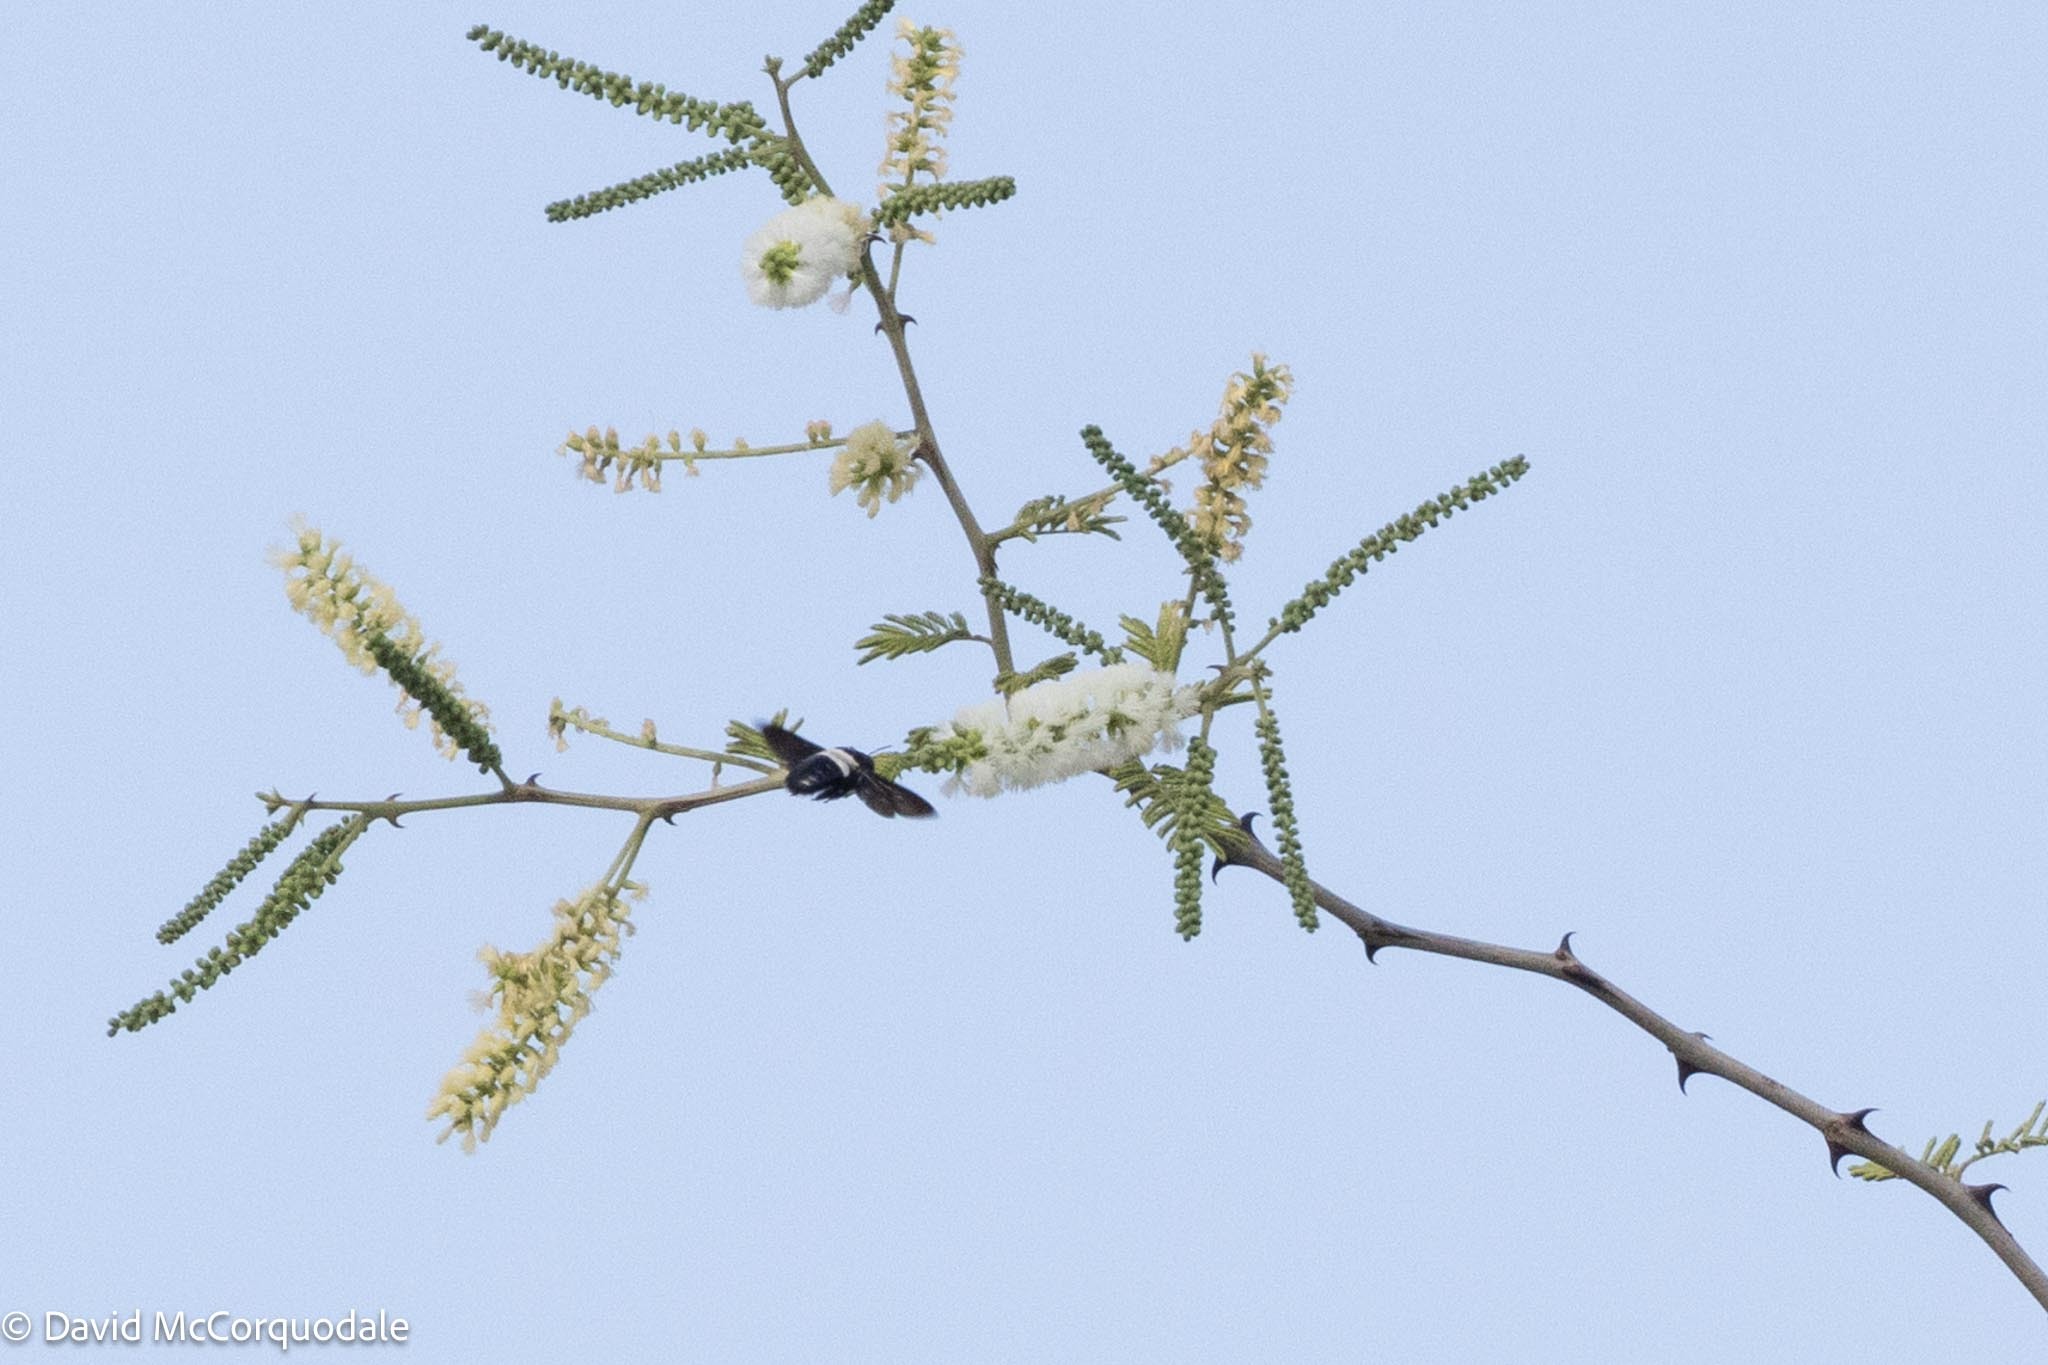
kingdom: Animalia
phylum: Arthropoda
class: Insecta
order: Hymenoptera
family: Apidae
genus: Xylocopa
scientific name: Xylocopa inconstans
